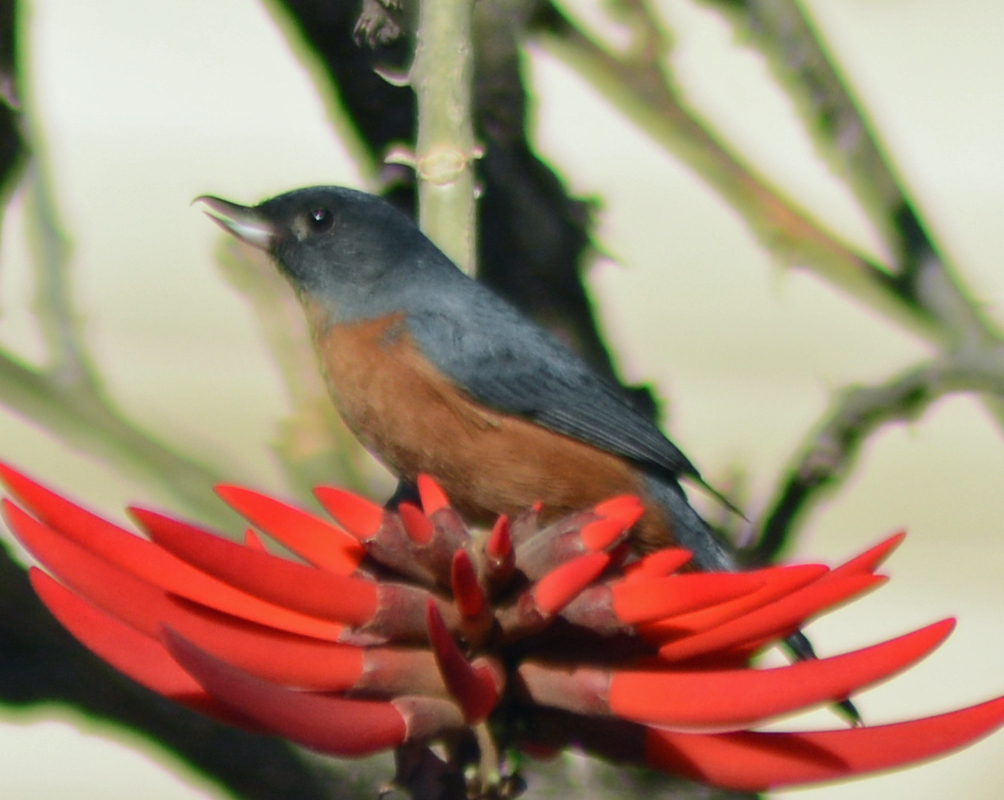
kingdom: Animalia
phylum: Chordata
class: Aves
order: Passeriformes
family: Thraupidae
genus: Diglossa
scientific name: Diglossa baritula
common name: Cinnamon-bellied flowerpiercer
